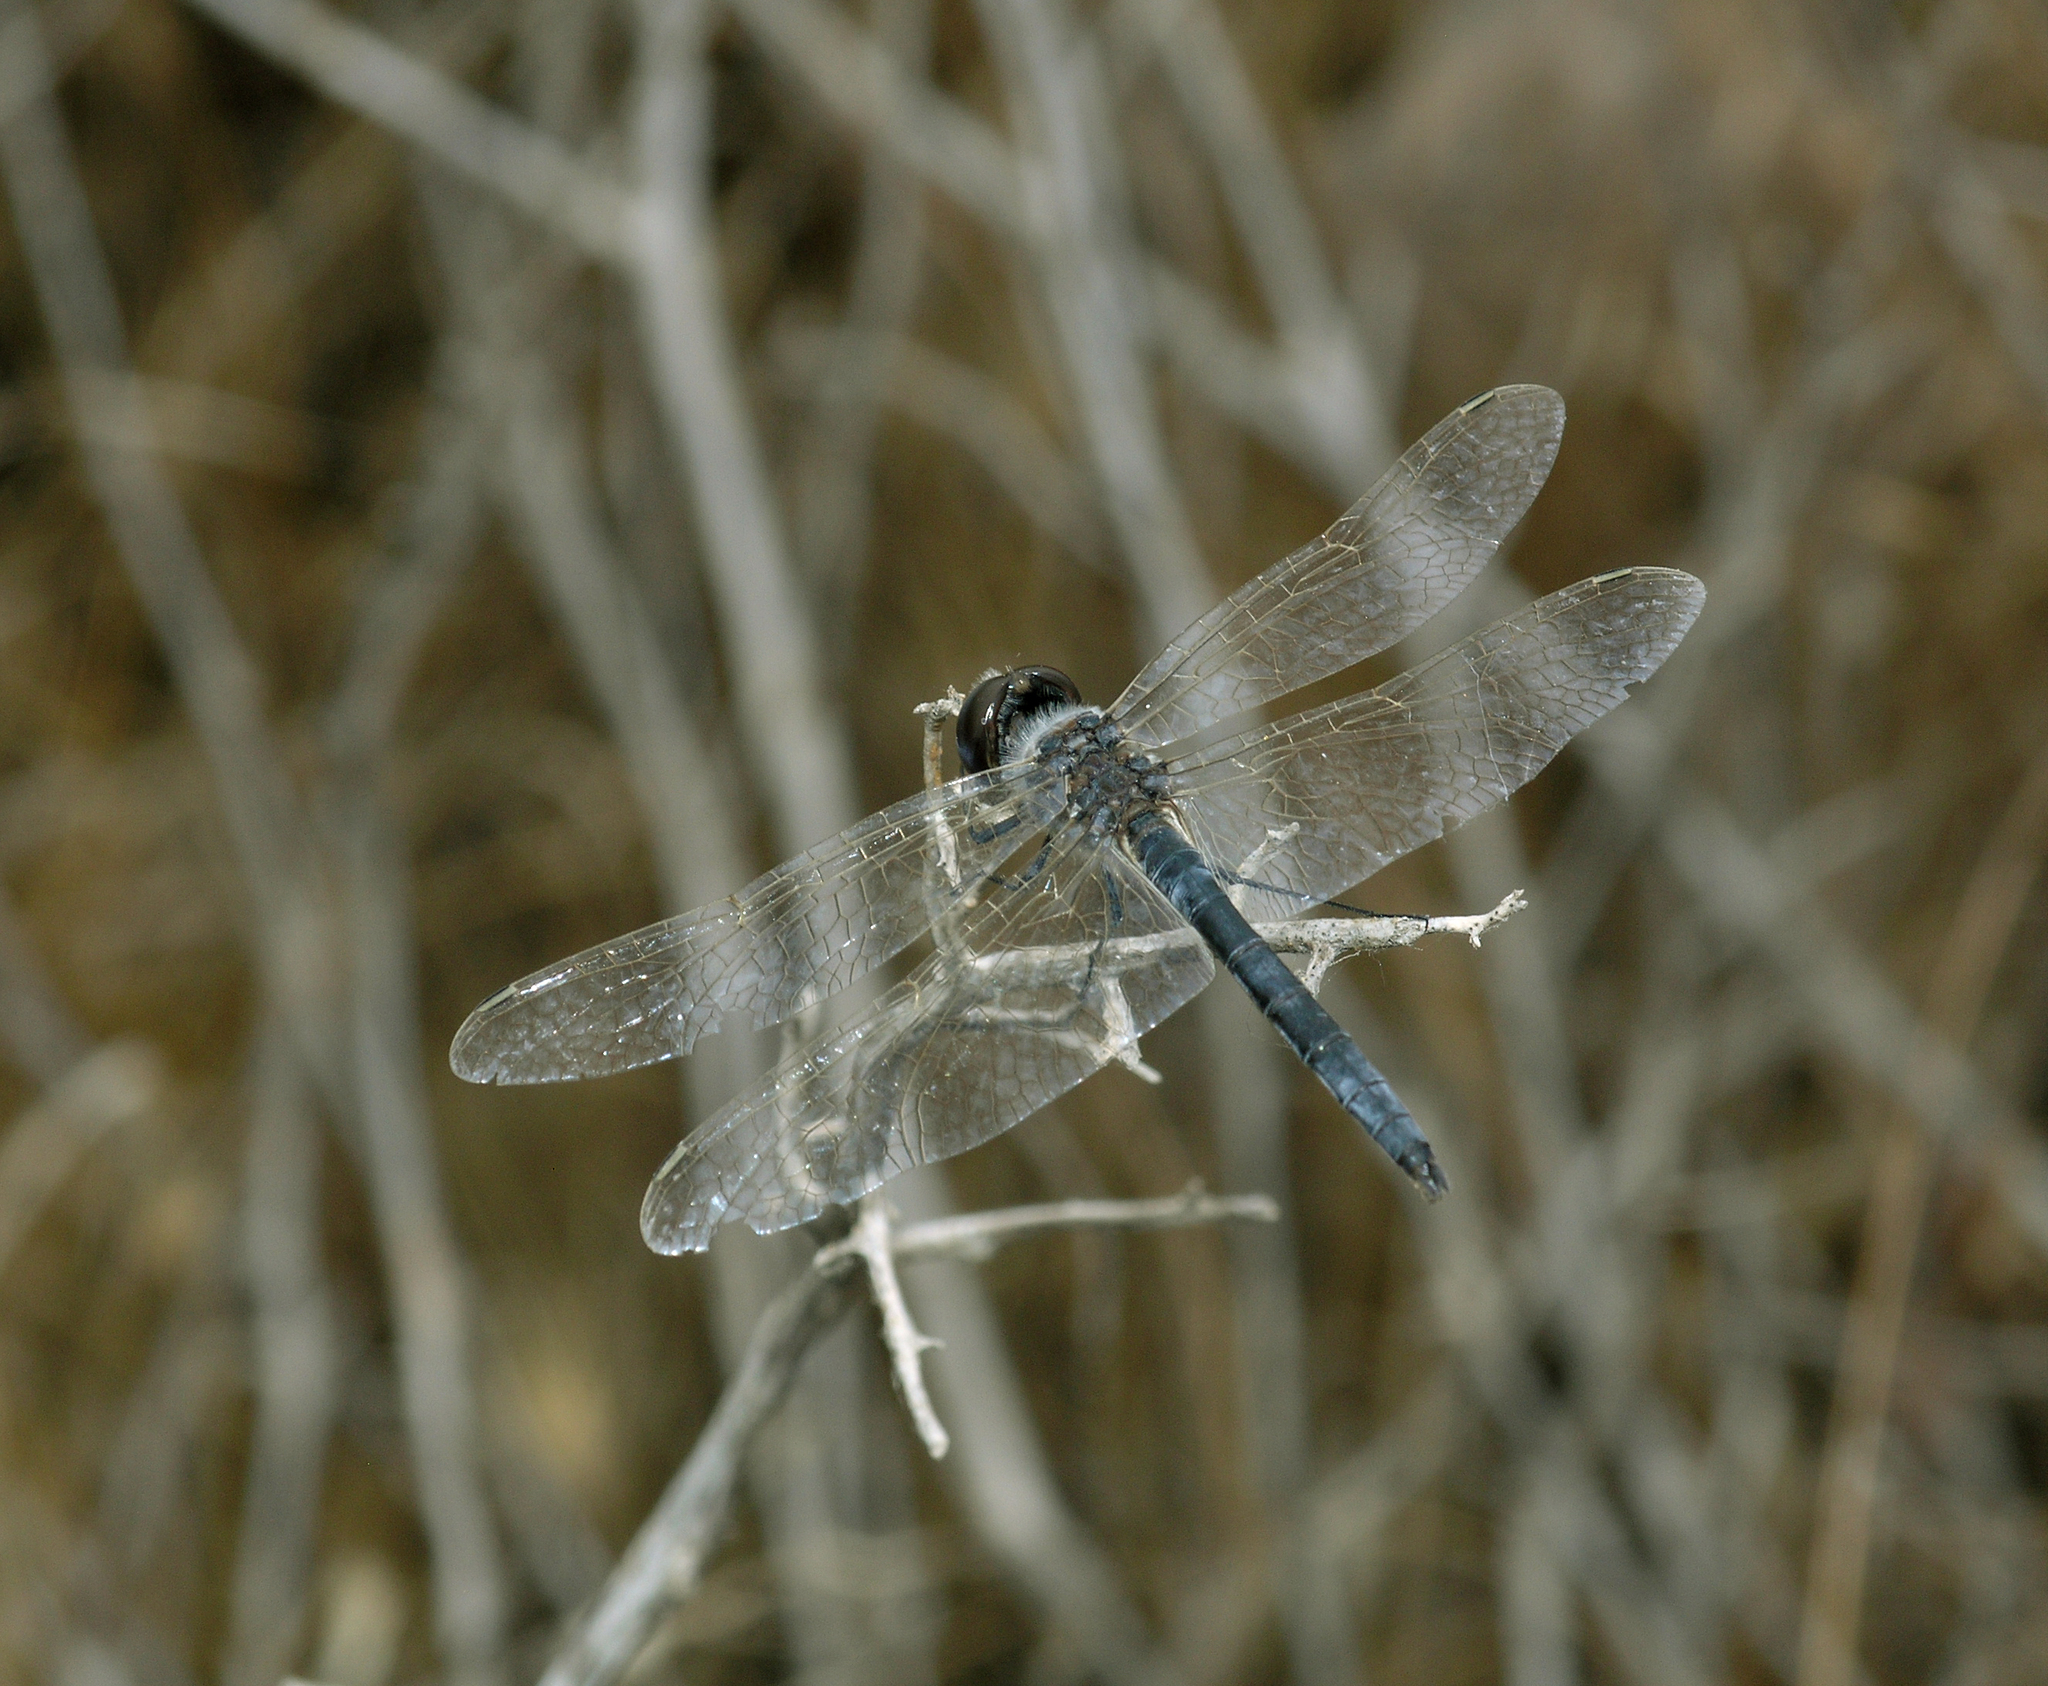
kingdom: Animalia
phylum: Arthropoda
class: Insecta
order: Odonata
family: Libellulidae
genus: Selysiothemis
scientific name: Selysiothemis nigra
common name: Black pennant
